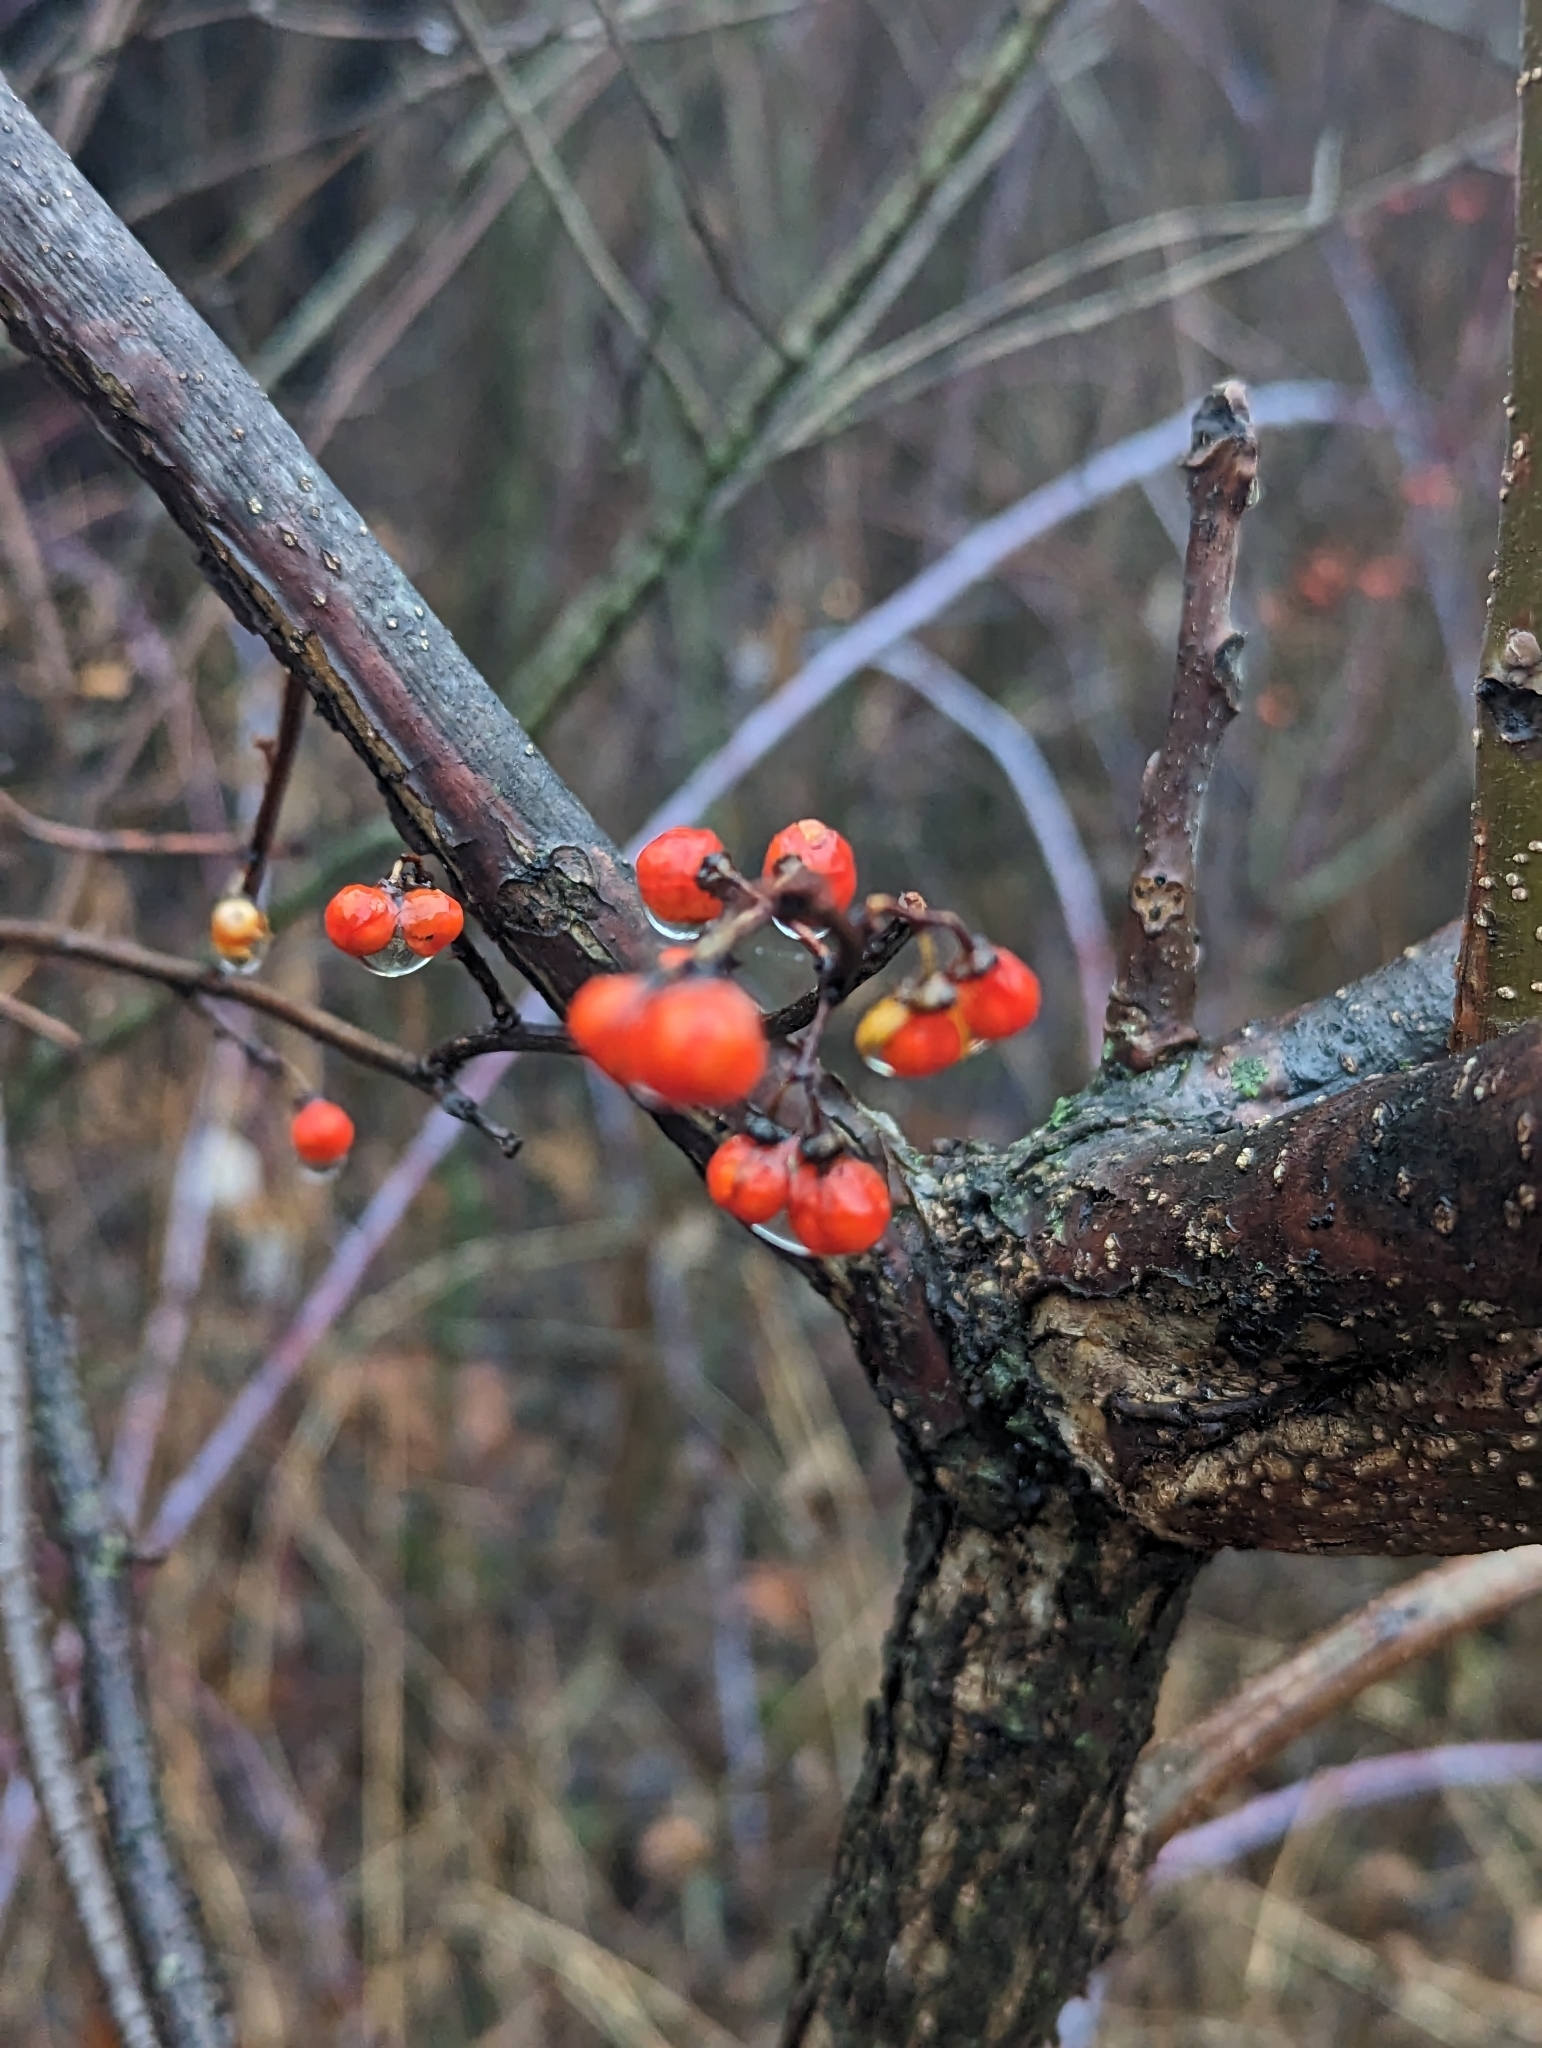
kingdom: Plantae
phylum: Tracheophyta
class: Magnoliopsida
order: Celastrales
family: Celastraceae
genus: Celastrus
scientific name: Celastrus orbiculatus
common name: Oriental bittersweet
